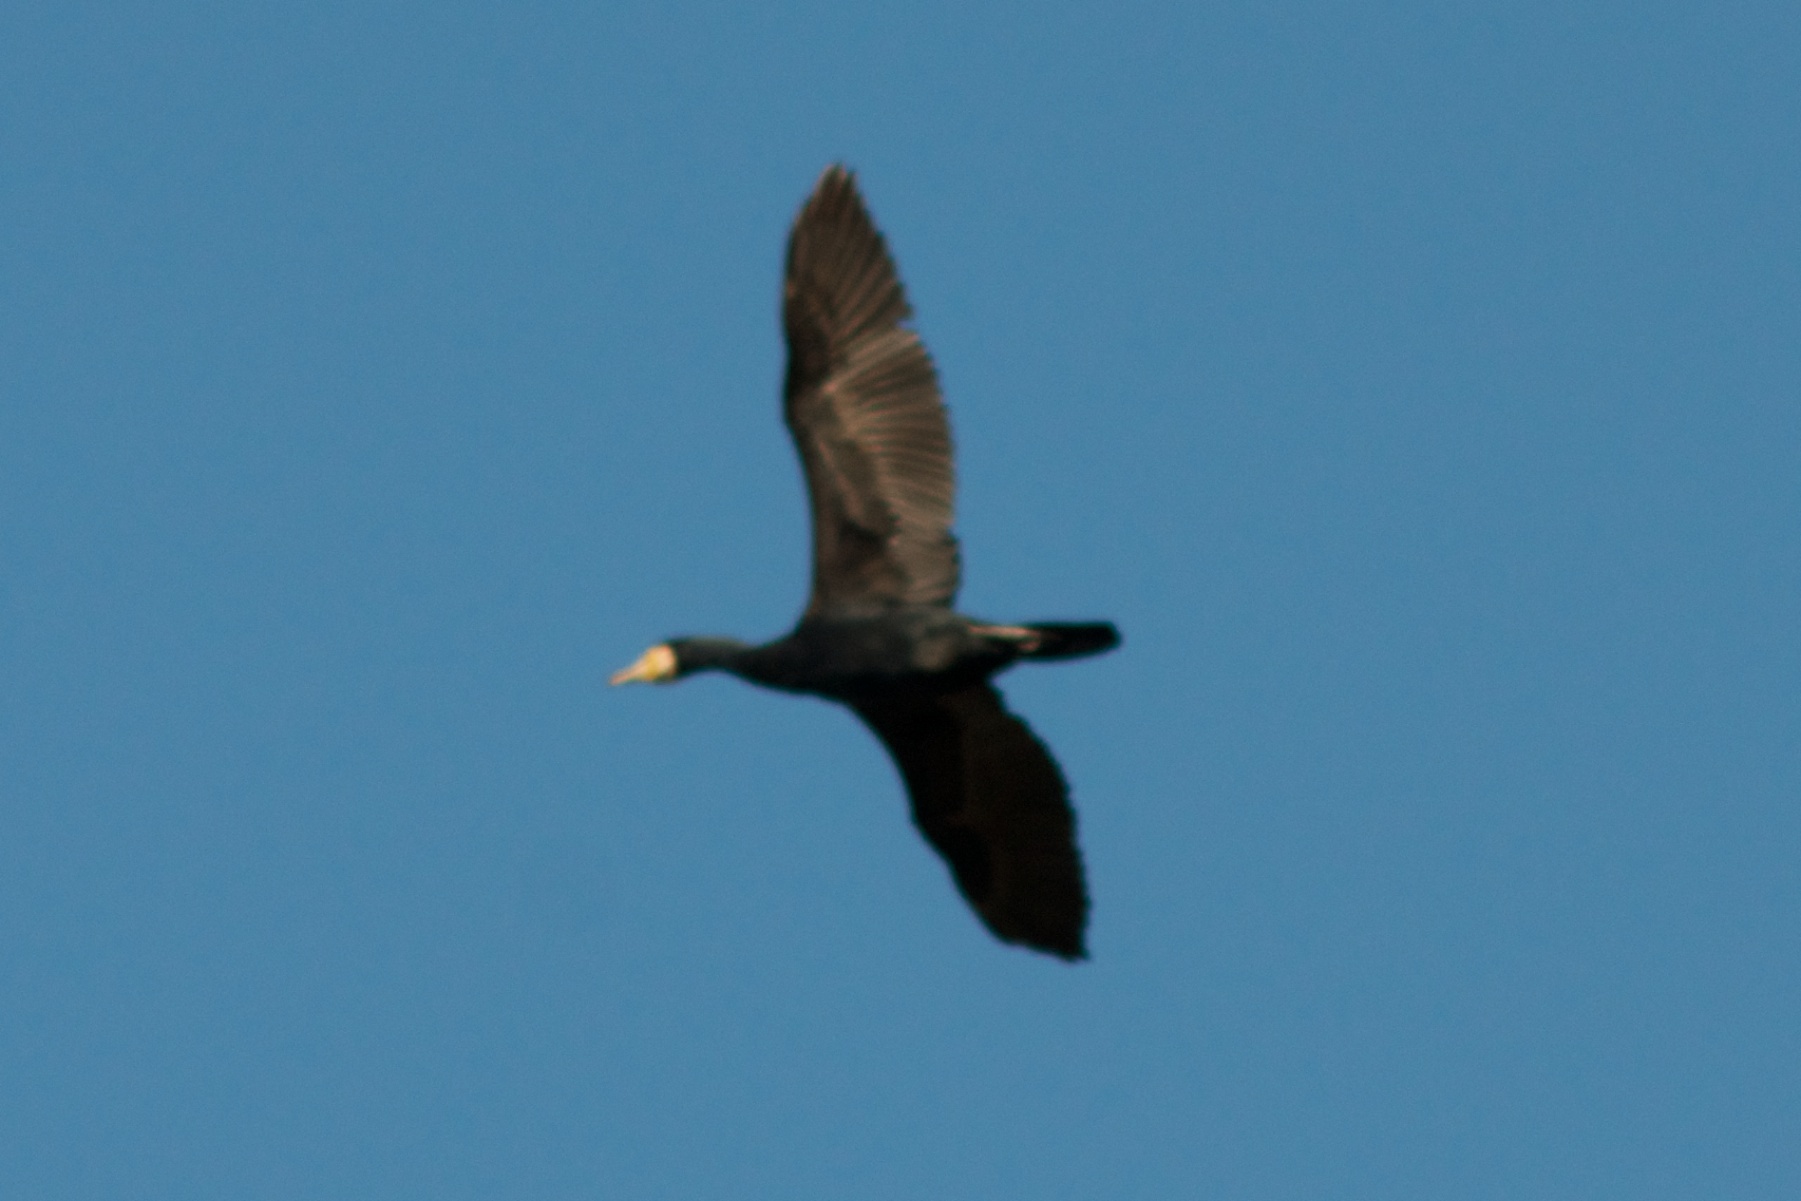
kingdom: Animalia
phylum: Chordata
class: Aves
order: Suliformes
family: Phalacrocoracidae
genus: Phalacrocorax
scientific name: Phalacrocorax carbo
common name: Great cormorant
